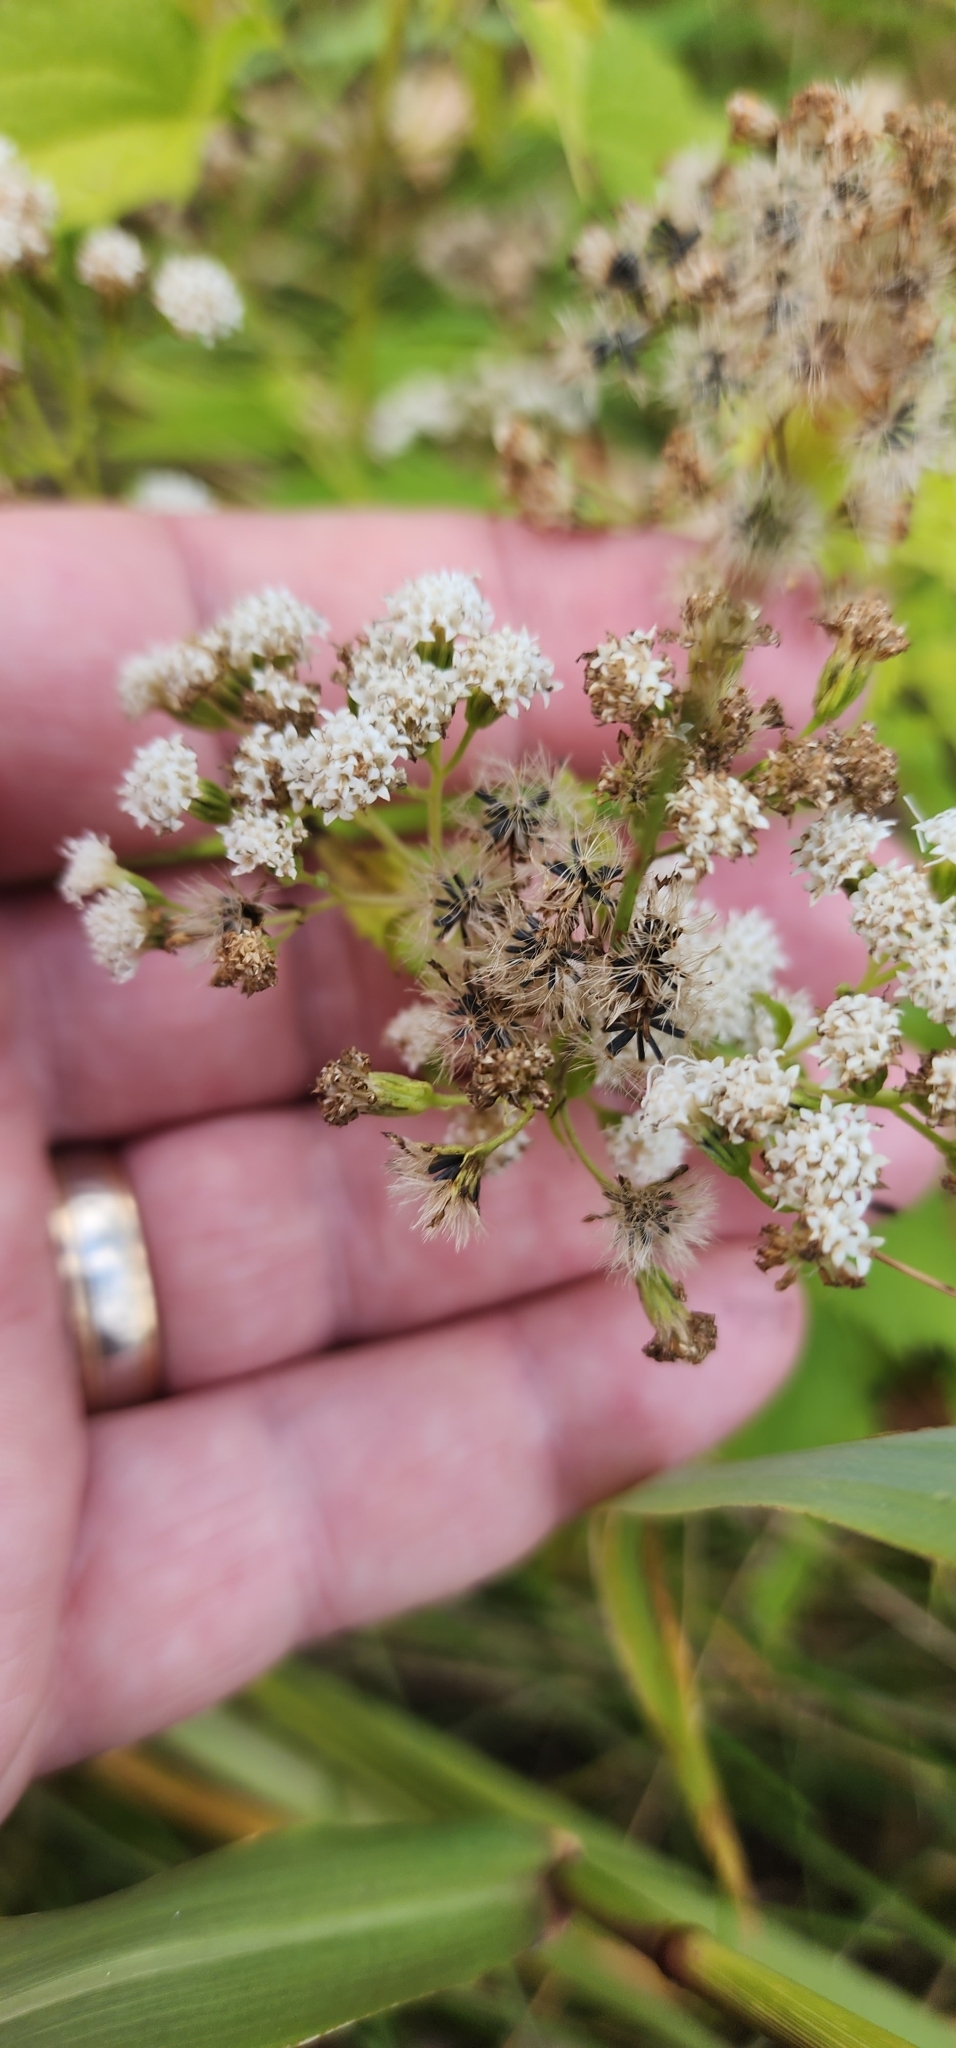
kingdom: Plantae
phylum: Tracheophyta
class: Magnoliopsida
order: Asterales
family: Asteraceae
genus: Ageratina
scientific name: Ageratina altissima
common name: White snakeroot
